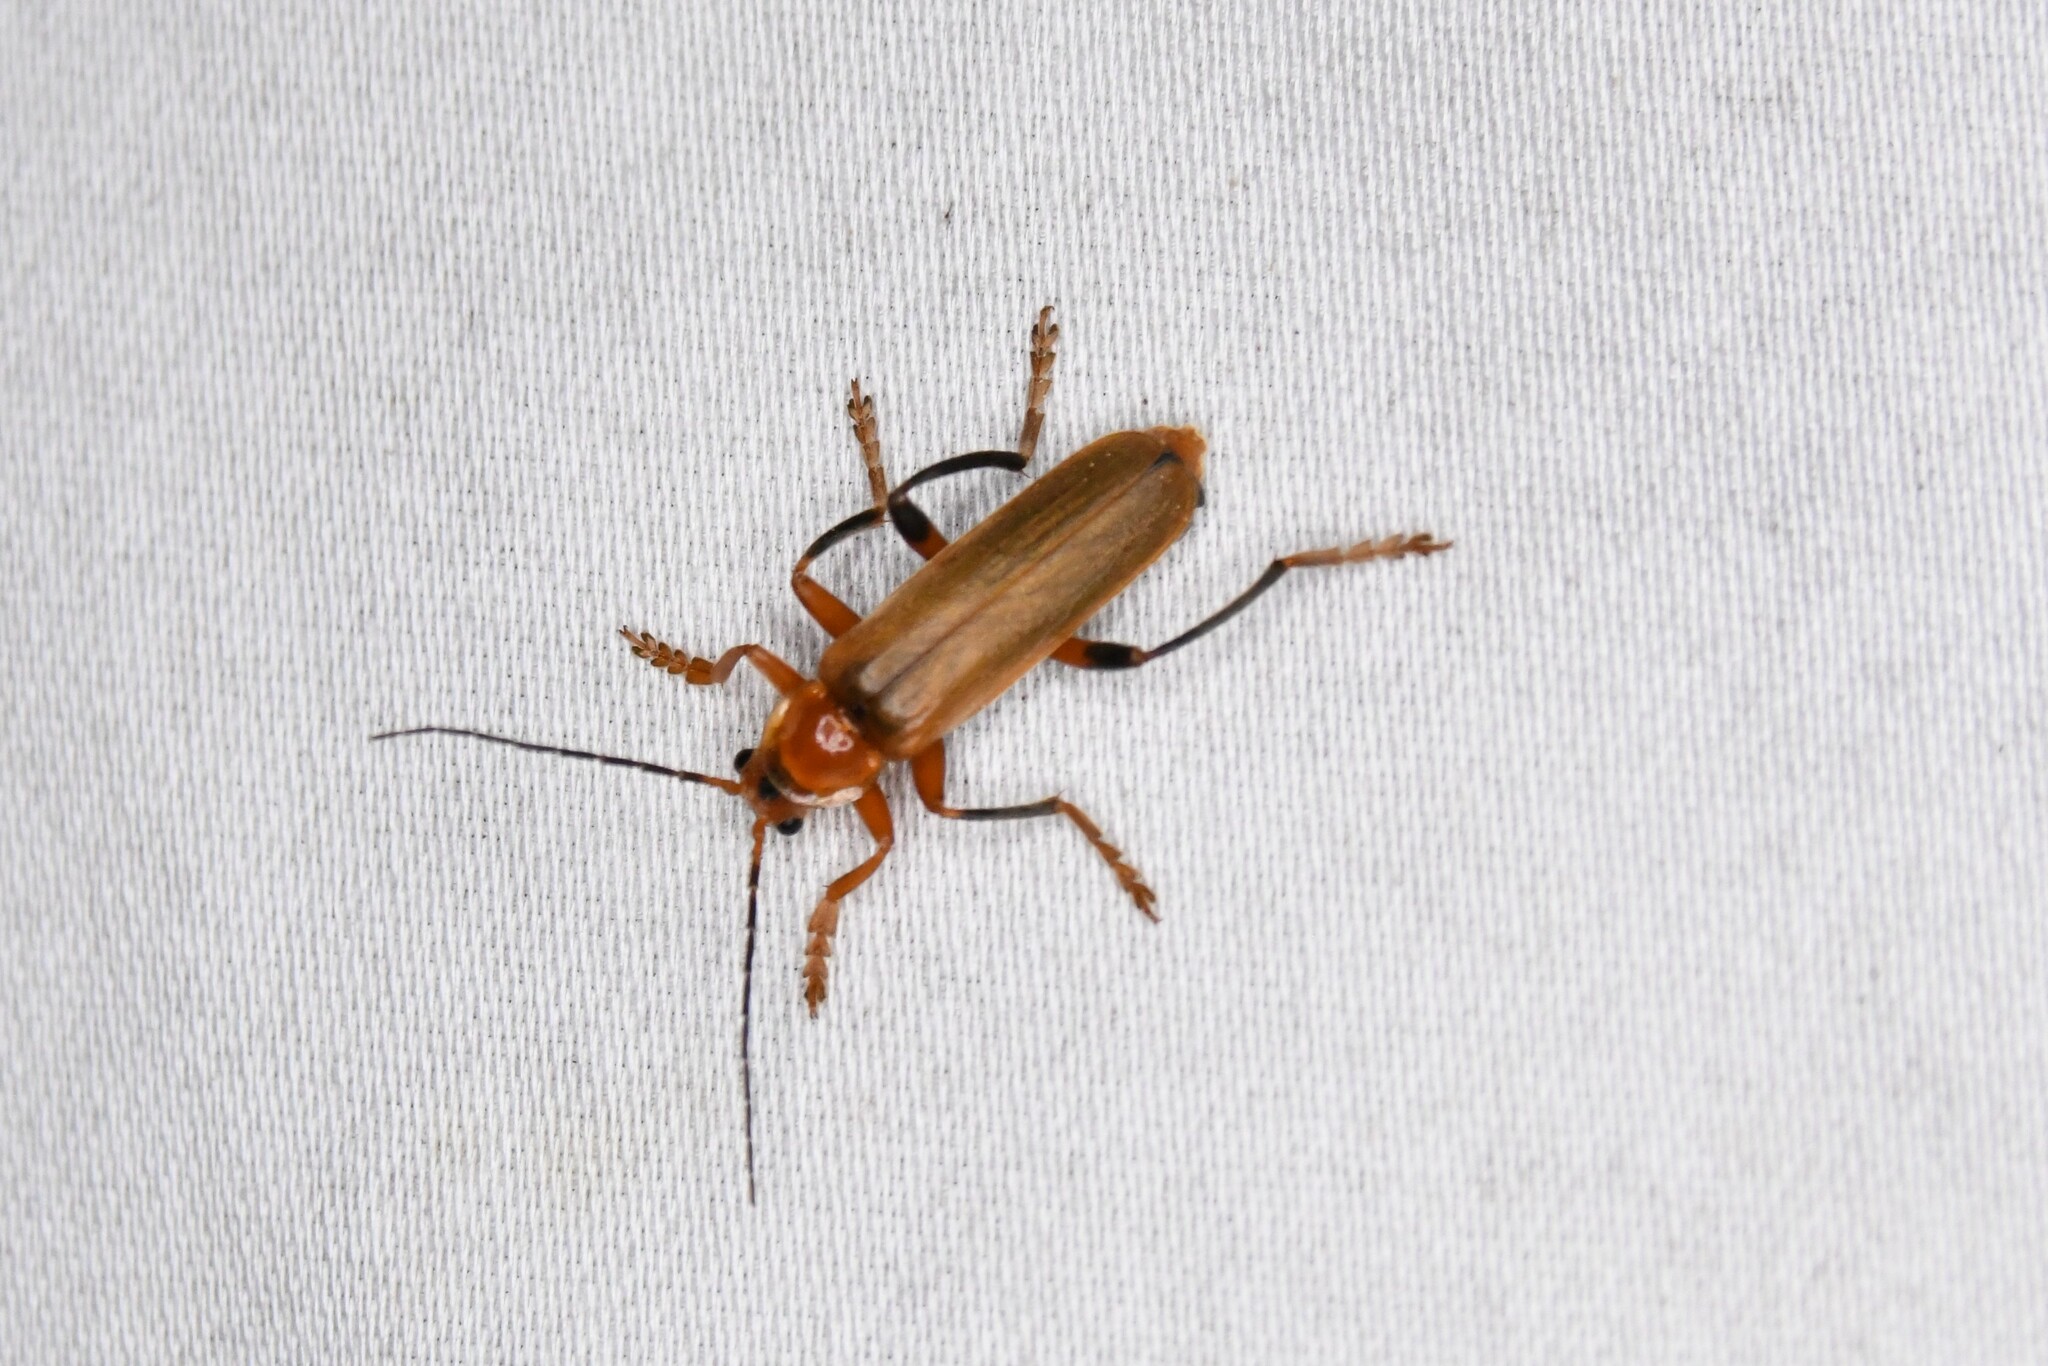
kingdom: Animalia
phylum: Arthropoda
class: Insecta
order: Coleoptera
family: Cantharidae
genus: Cantharis
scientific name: Cantharis livida
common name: Livid soldier beetle
